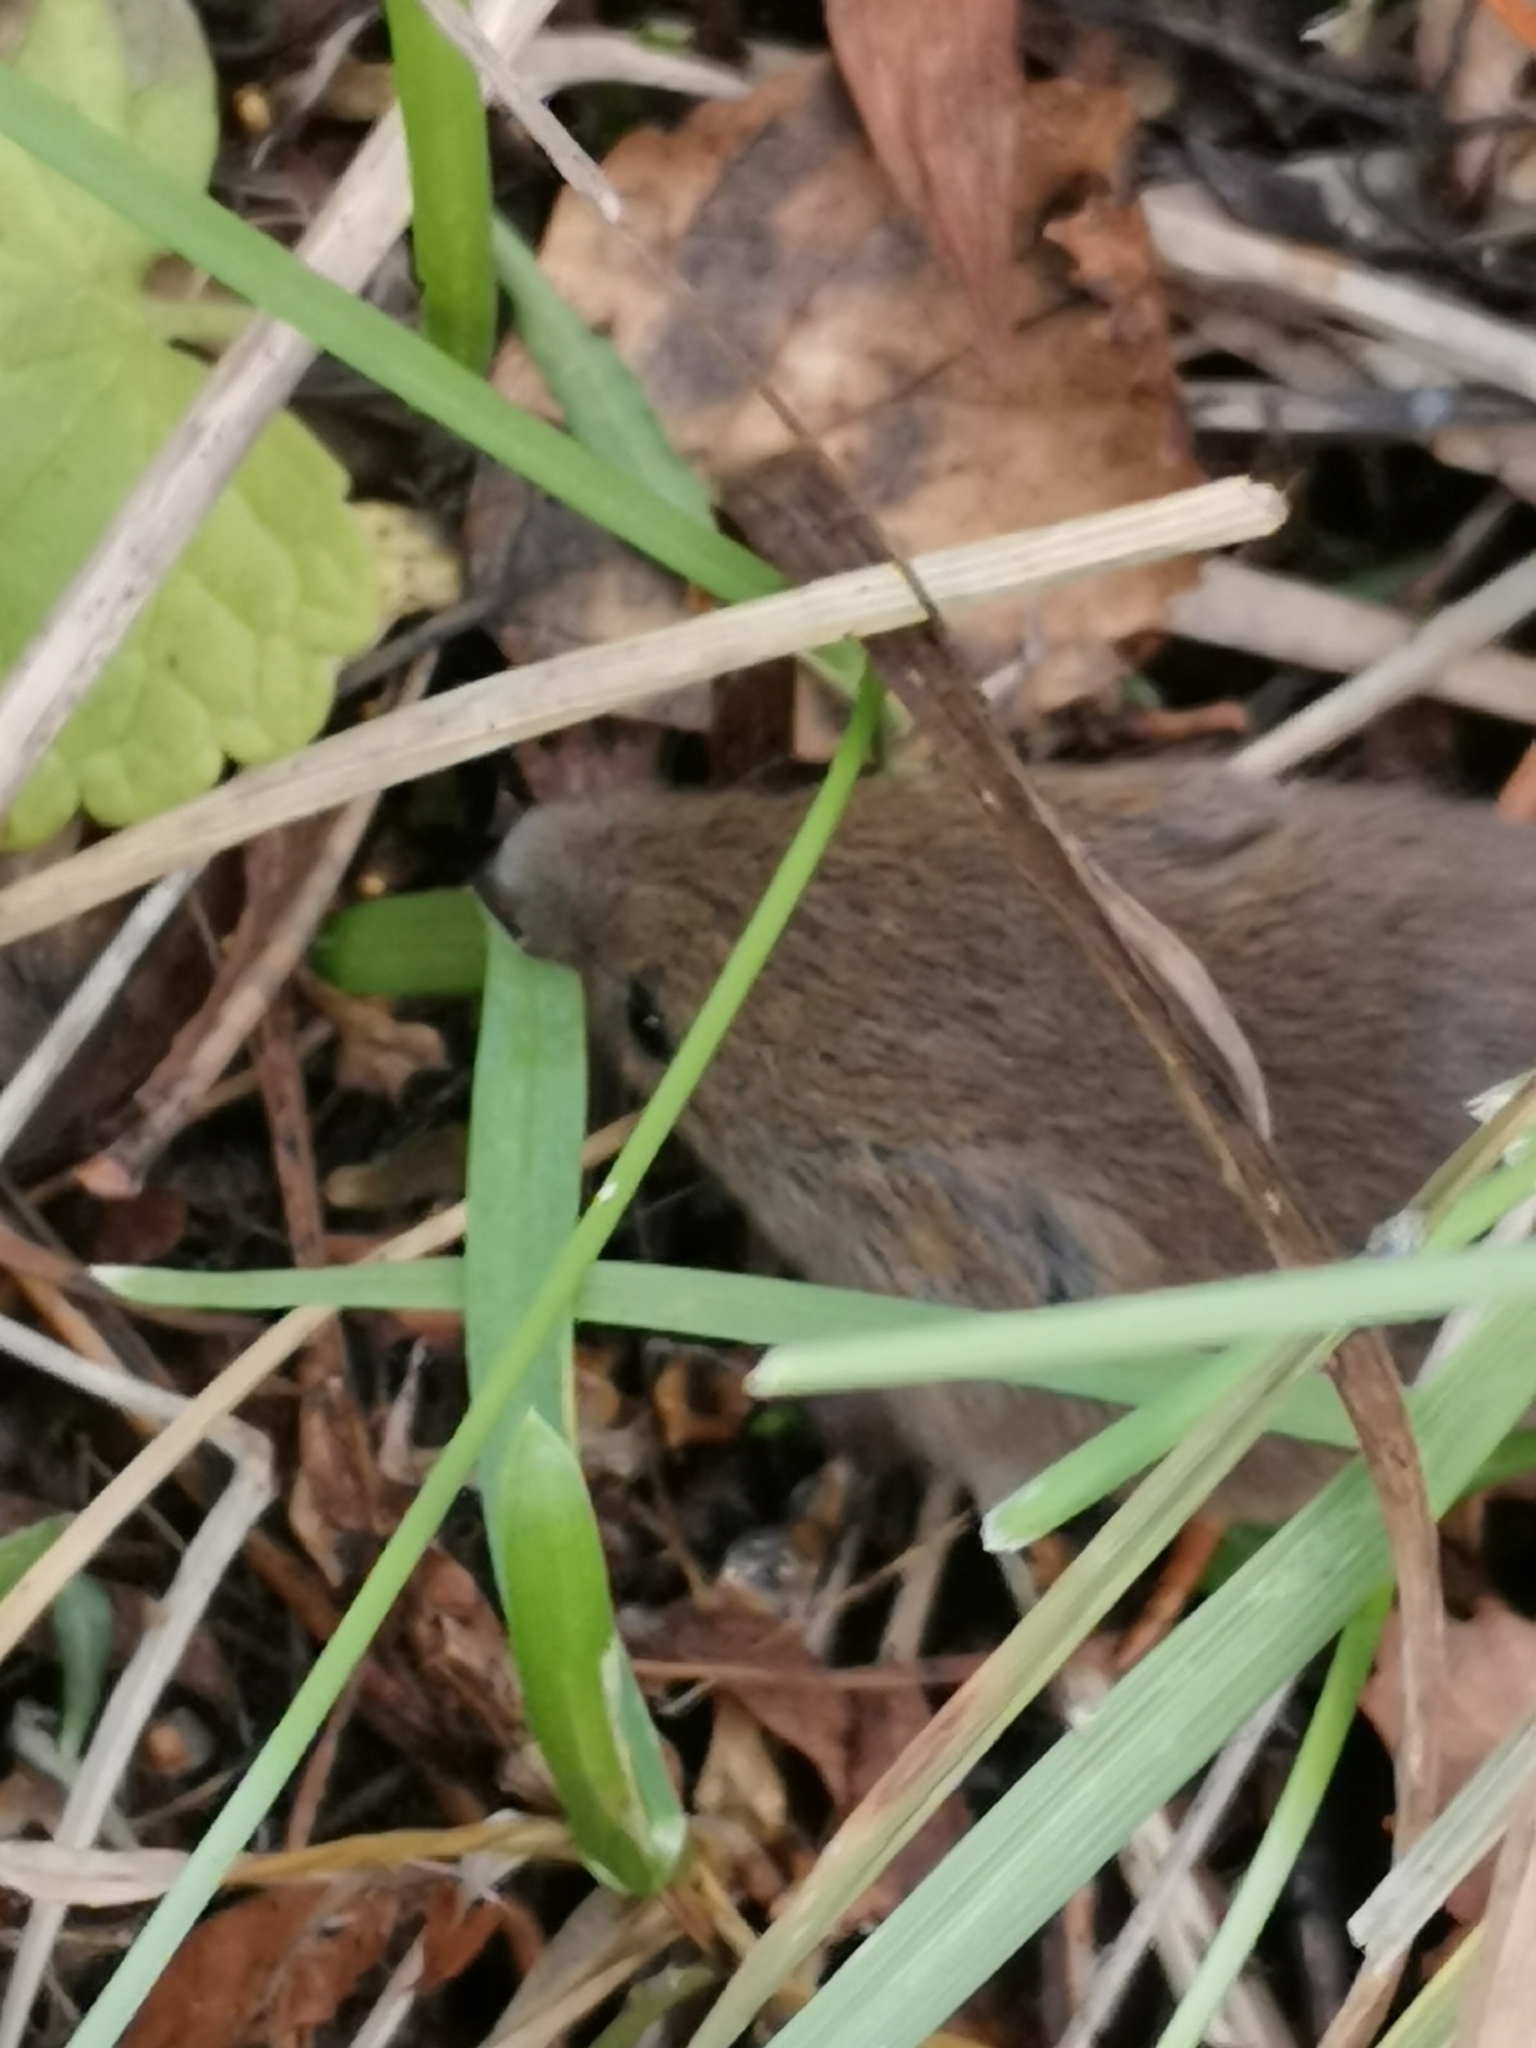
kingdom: Animalia
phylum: Chordata
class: Mammalia
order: Rodentia
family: Muridae
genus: Micromys
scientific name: Micromys minutus
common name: Harvest mouse
